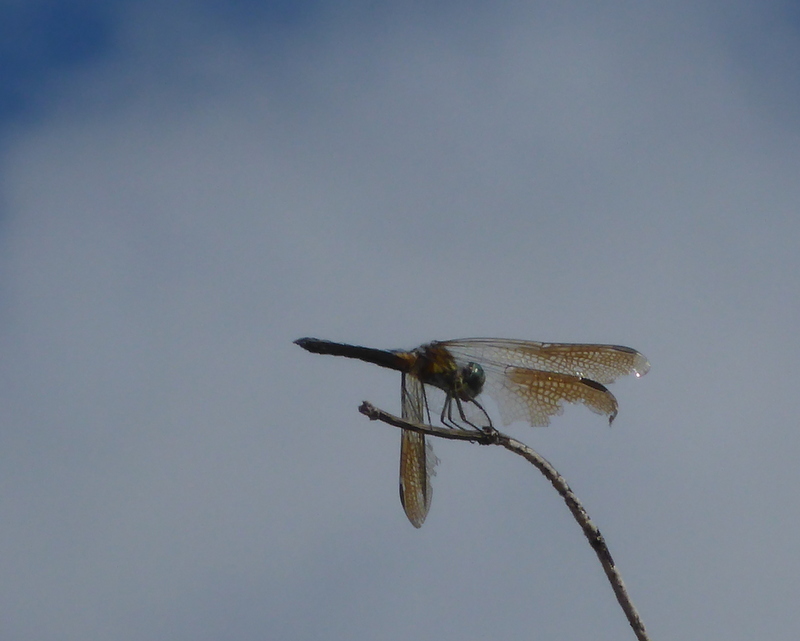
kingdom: Animalia
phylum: Arthropoda
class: Insecta
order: Odonata
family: Libellulidae
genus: Pachydiplax
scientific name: Pachydiplax longipennis
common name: Blue dasher
